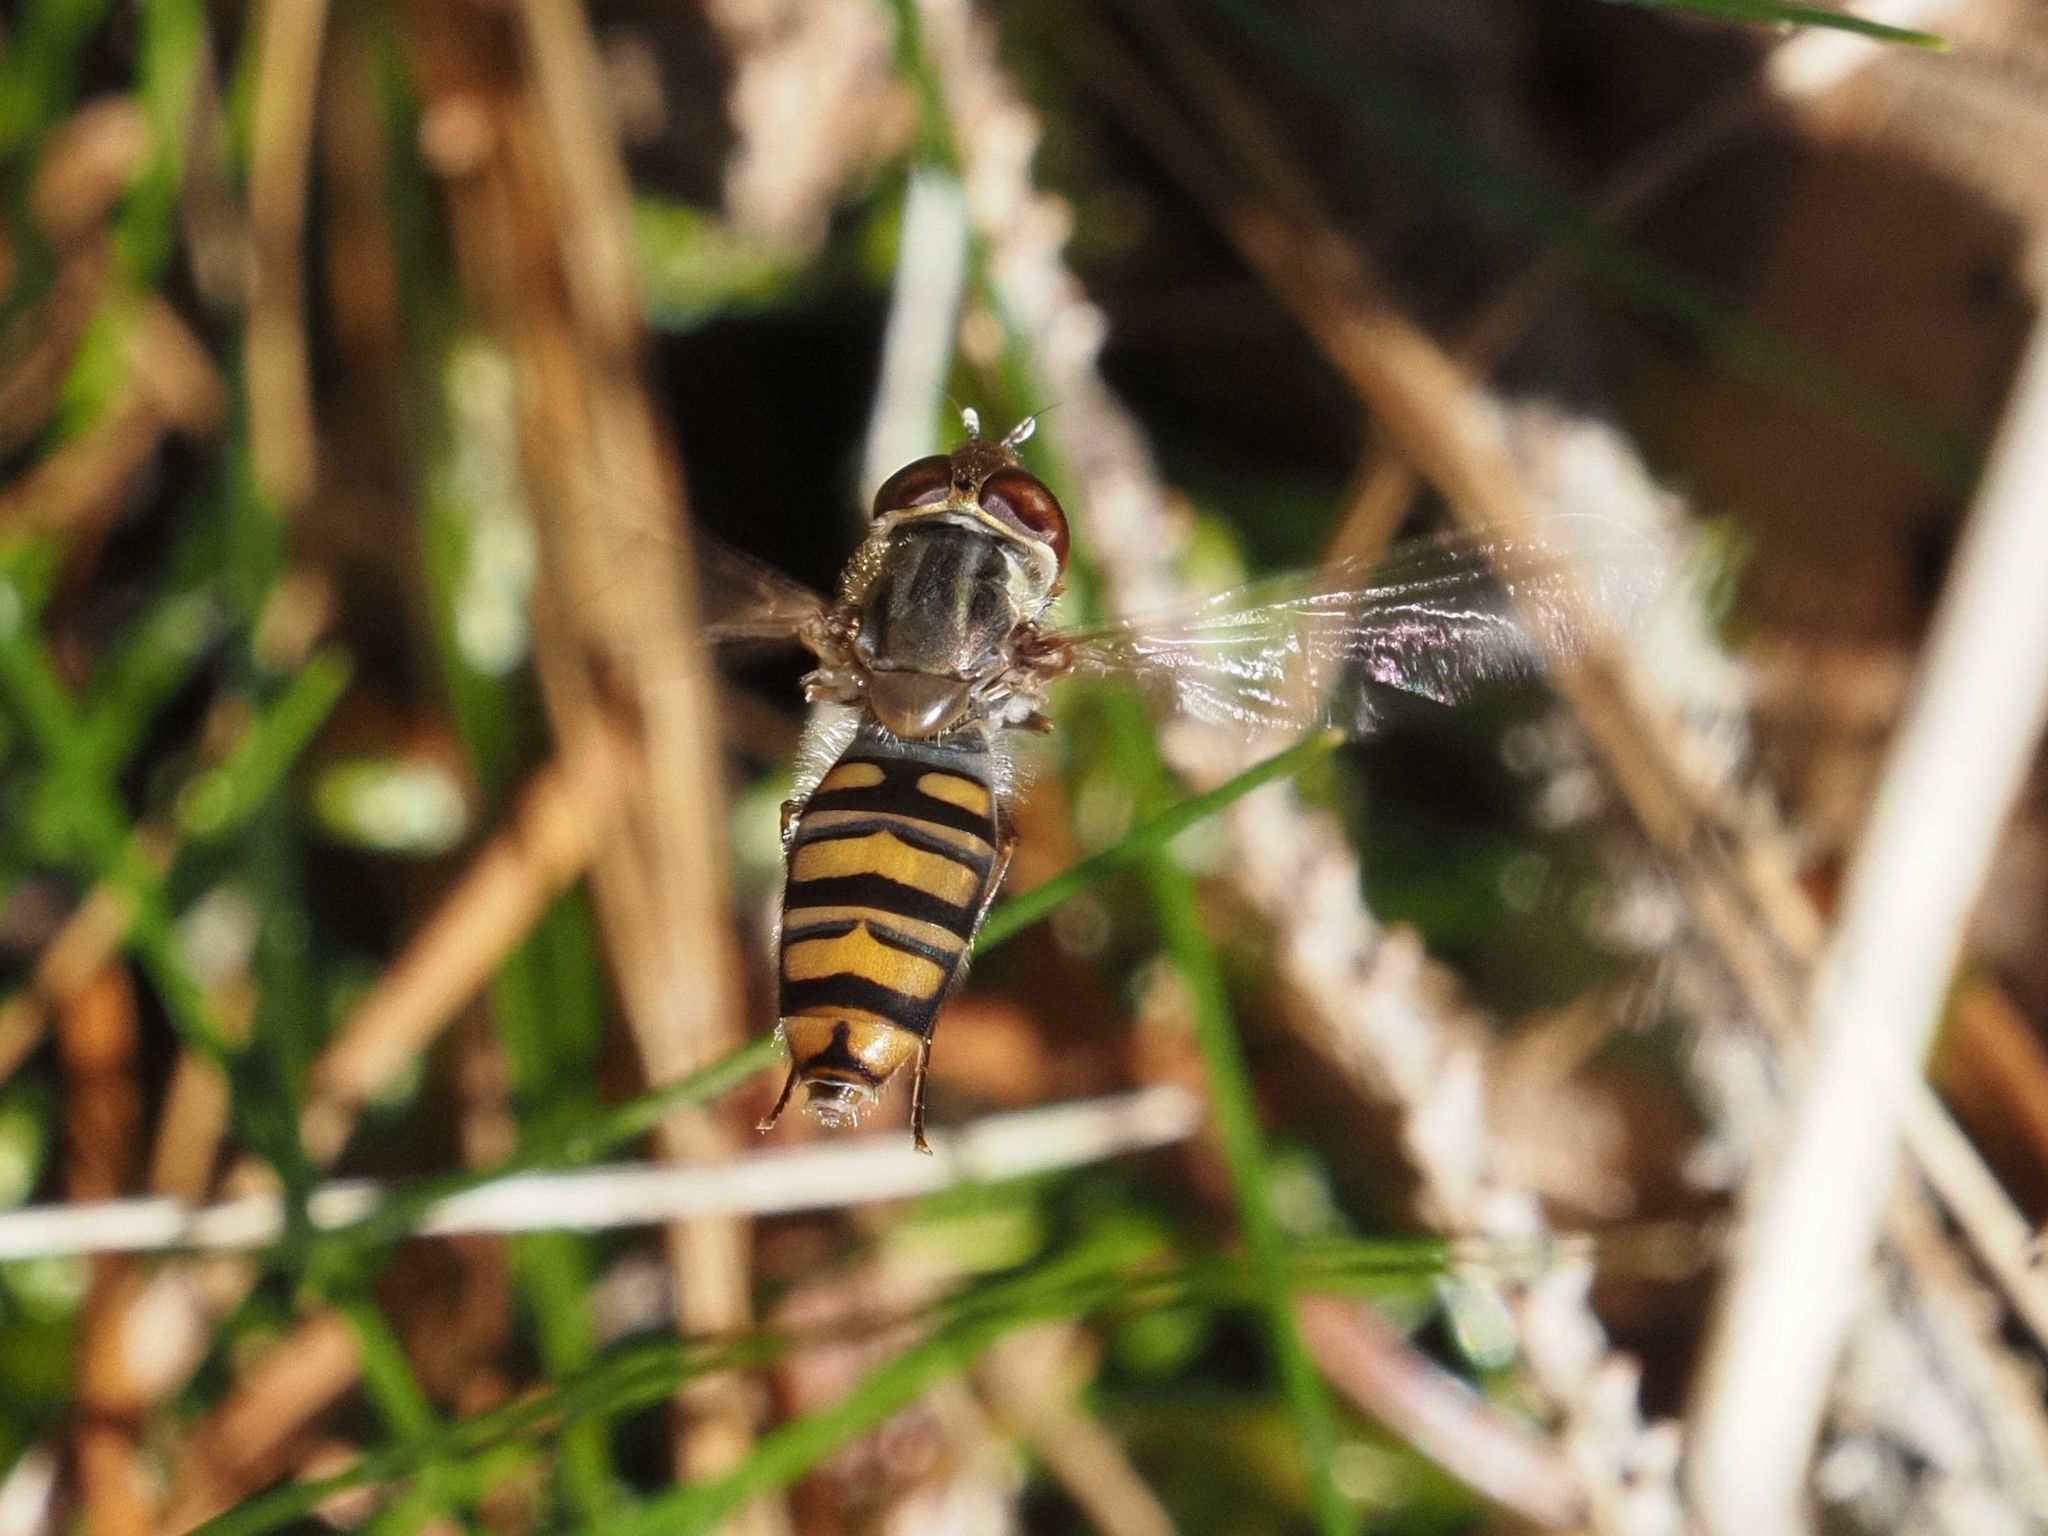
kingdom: Animalia
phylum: Arthropoda
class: Insecta
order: Diptera
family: Syrphidae
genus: Episyrphus
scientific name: Episyrphus balteatus
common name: Marmalade hoverfly
